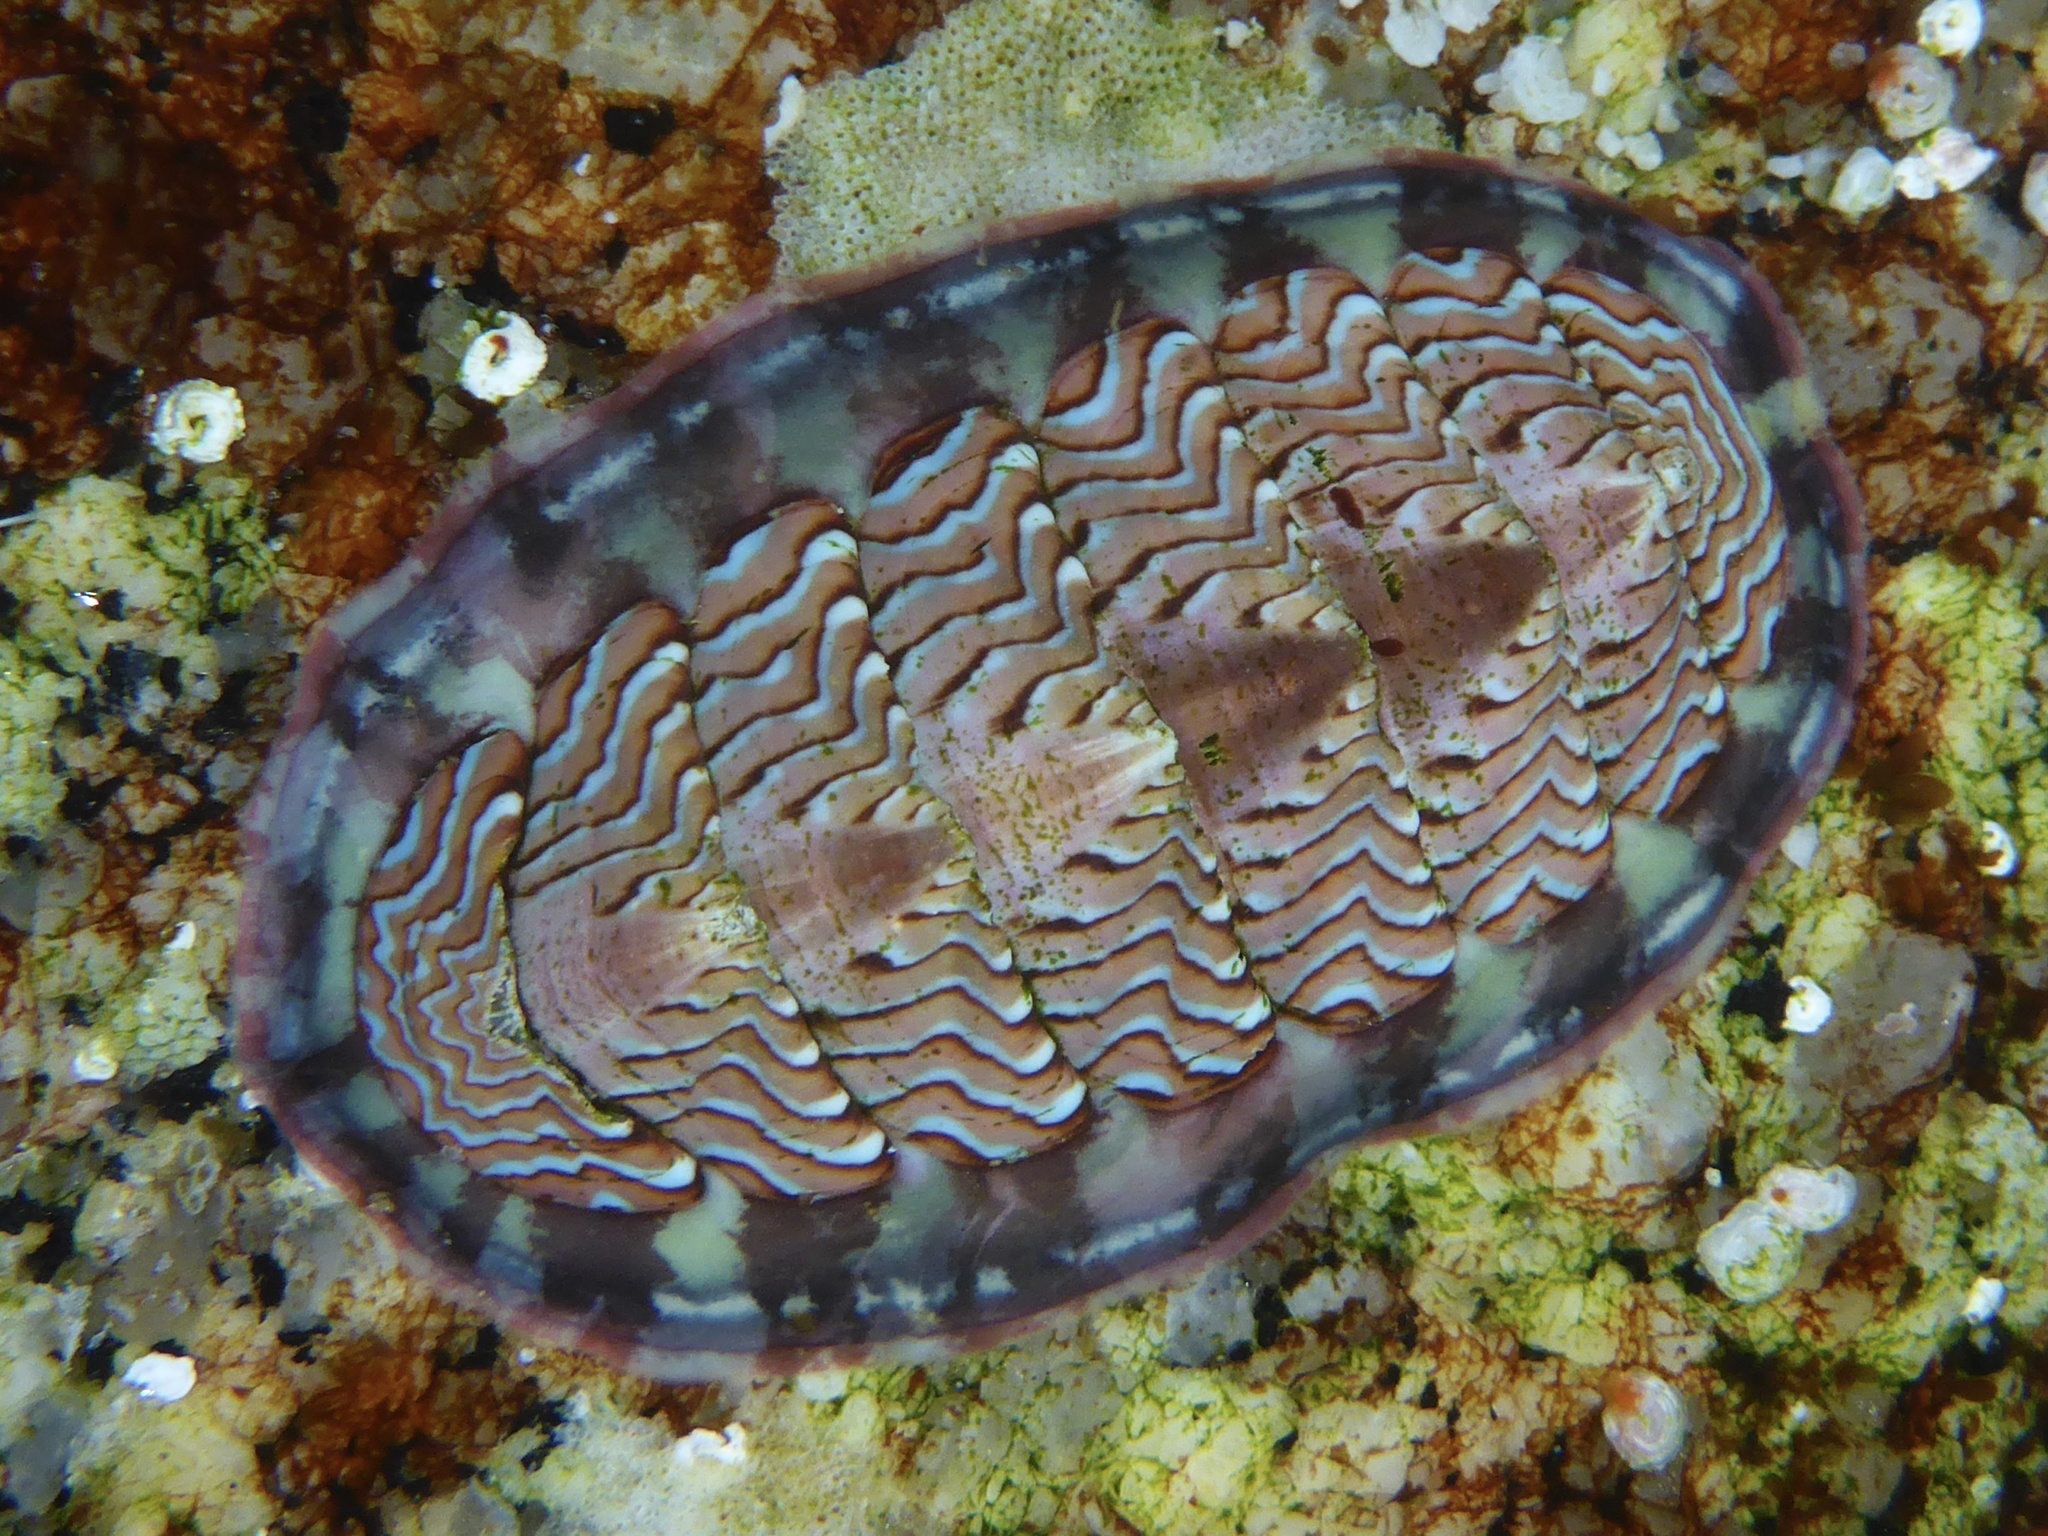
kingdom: Animalia
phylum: Mollusca
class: Polyplacophora
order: Chitonida
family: Tonicellidae
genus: Tonicella
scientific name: Tonicella lokii
